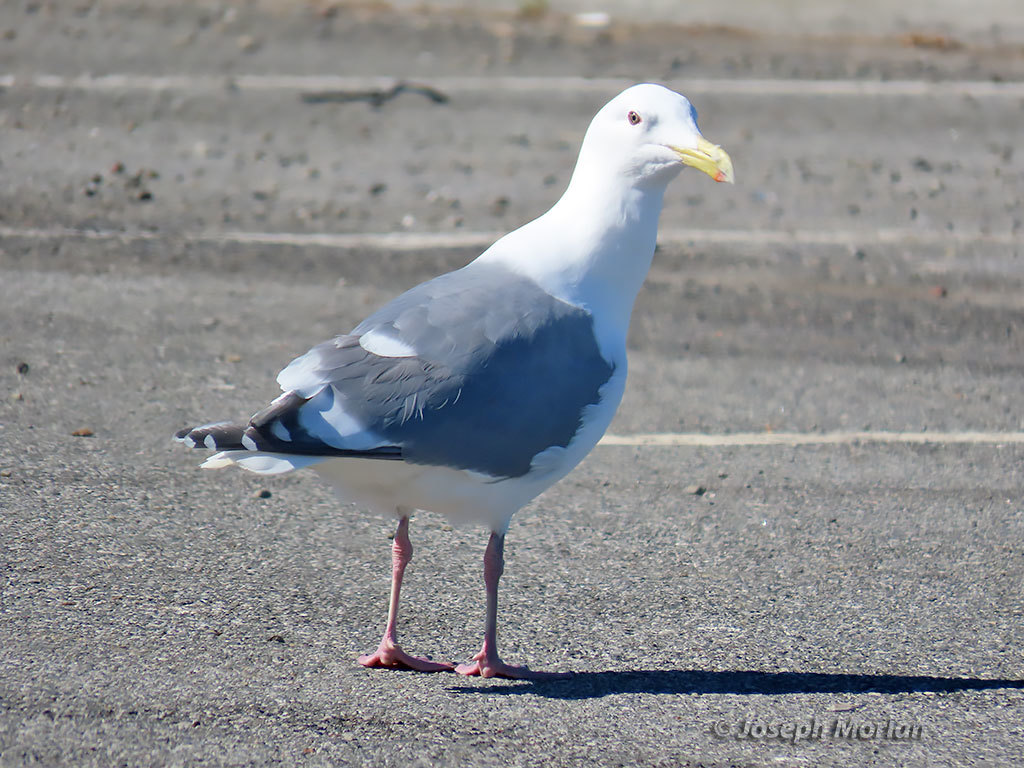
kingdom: Animalia
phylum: Chordata
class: Aves
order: Charadriiformes
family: Laridae
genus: Larus
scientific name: Larus
